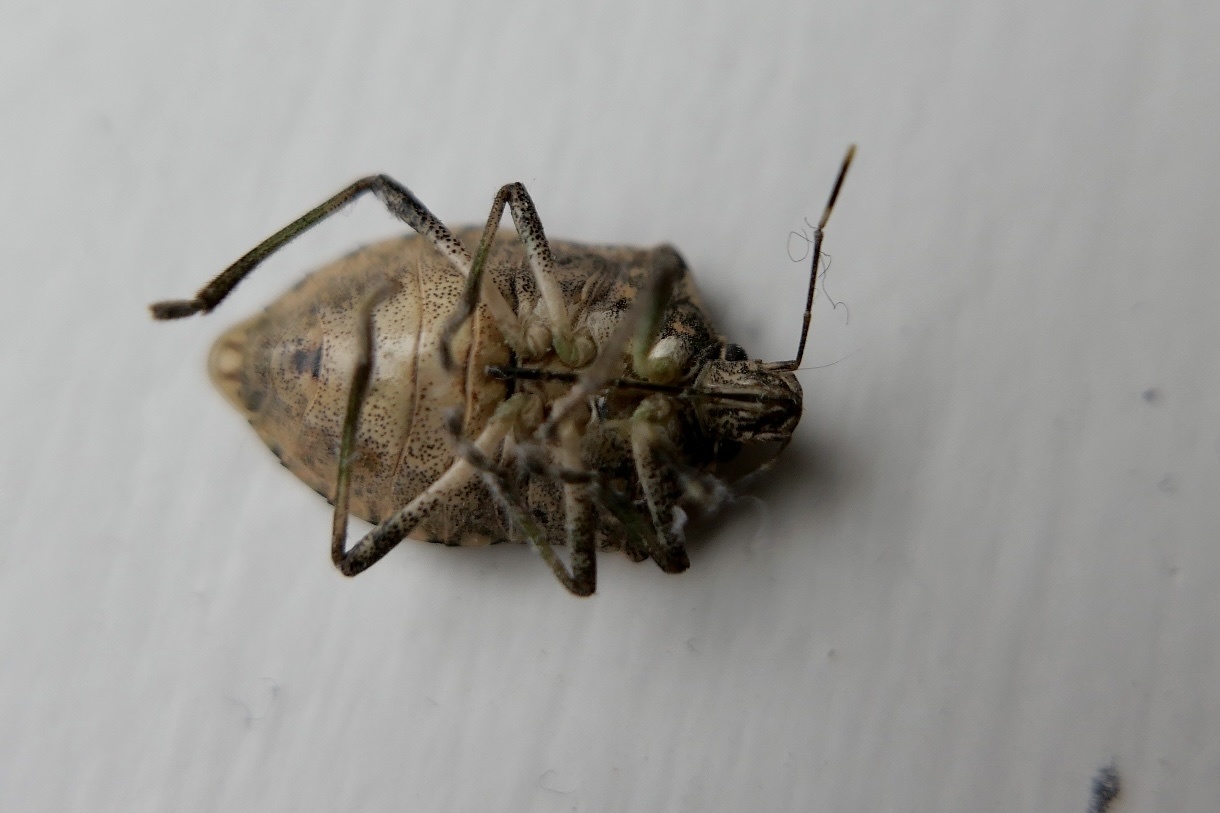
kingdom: Animalia
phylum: Arthropoda
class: Insecta
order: Hemiptera
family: Pentatomidae
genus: Halyomorpha
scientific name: Halyomorpha halys
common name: Brown marmorated stink bug
